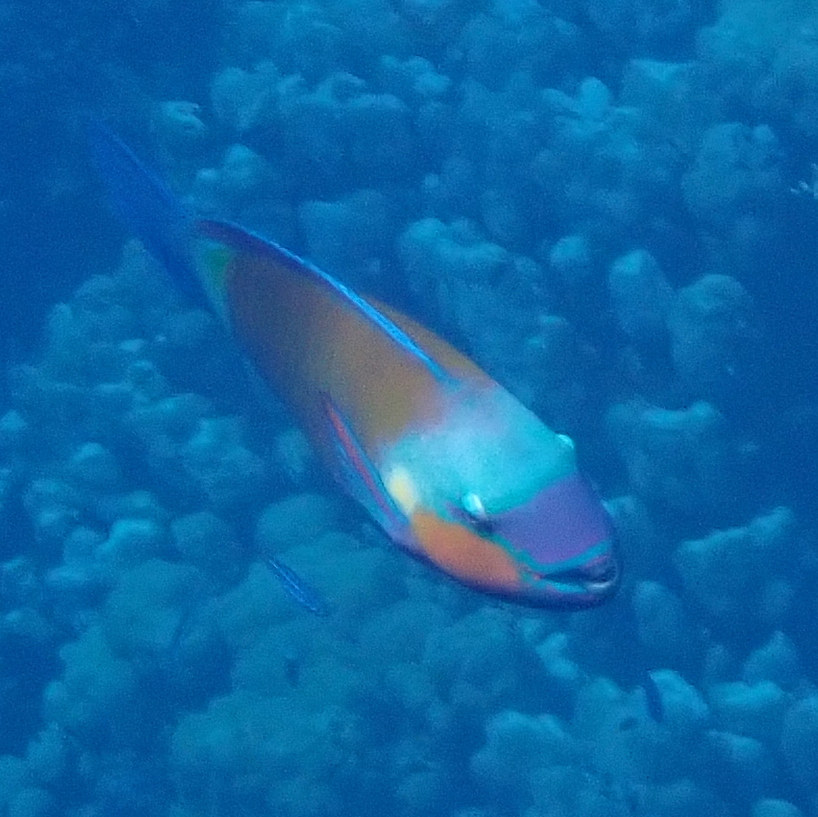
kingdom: Animalia
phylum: Chordata
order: Perciformes
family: Scaridae
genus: Chlorurus
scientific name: Chlorurus sordidus
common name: Bullethead parrotfish
